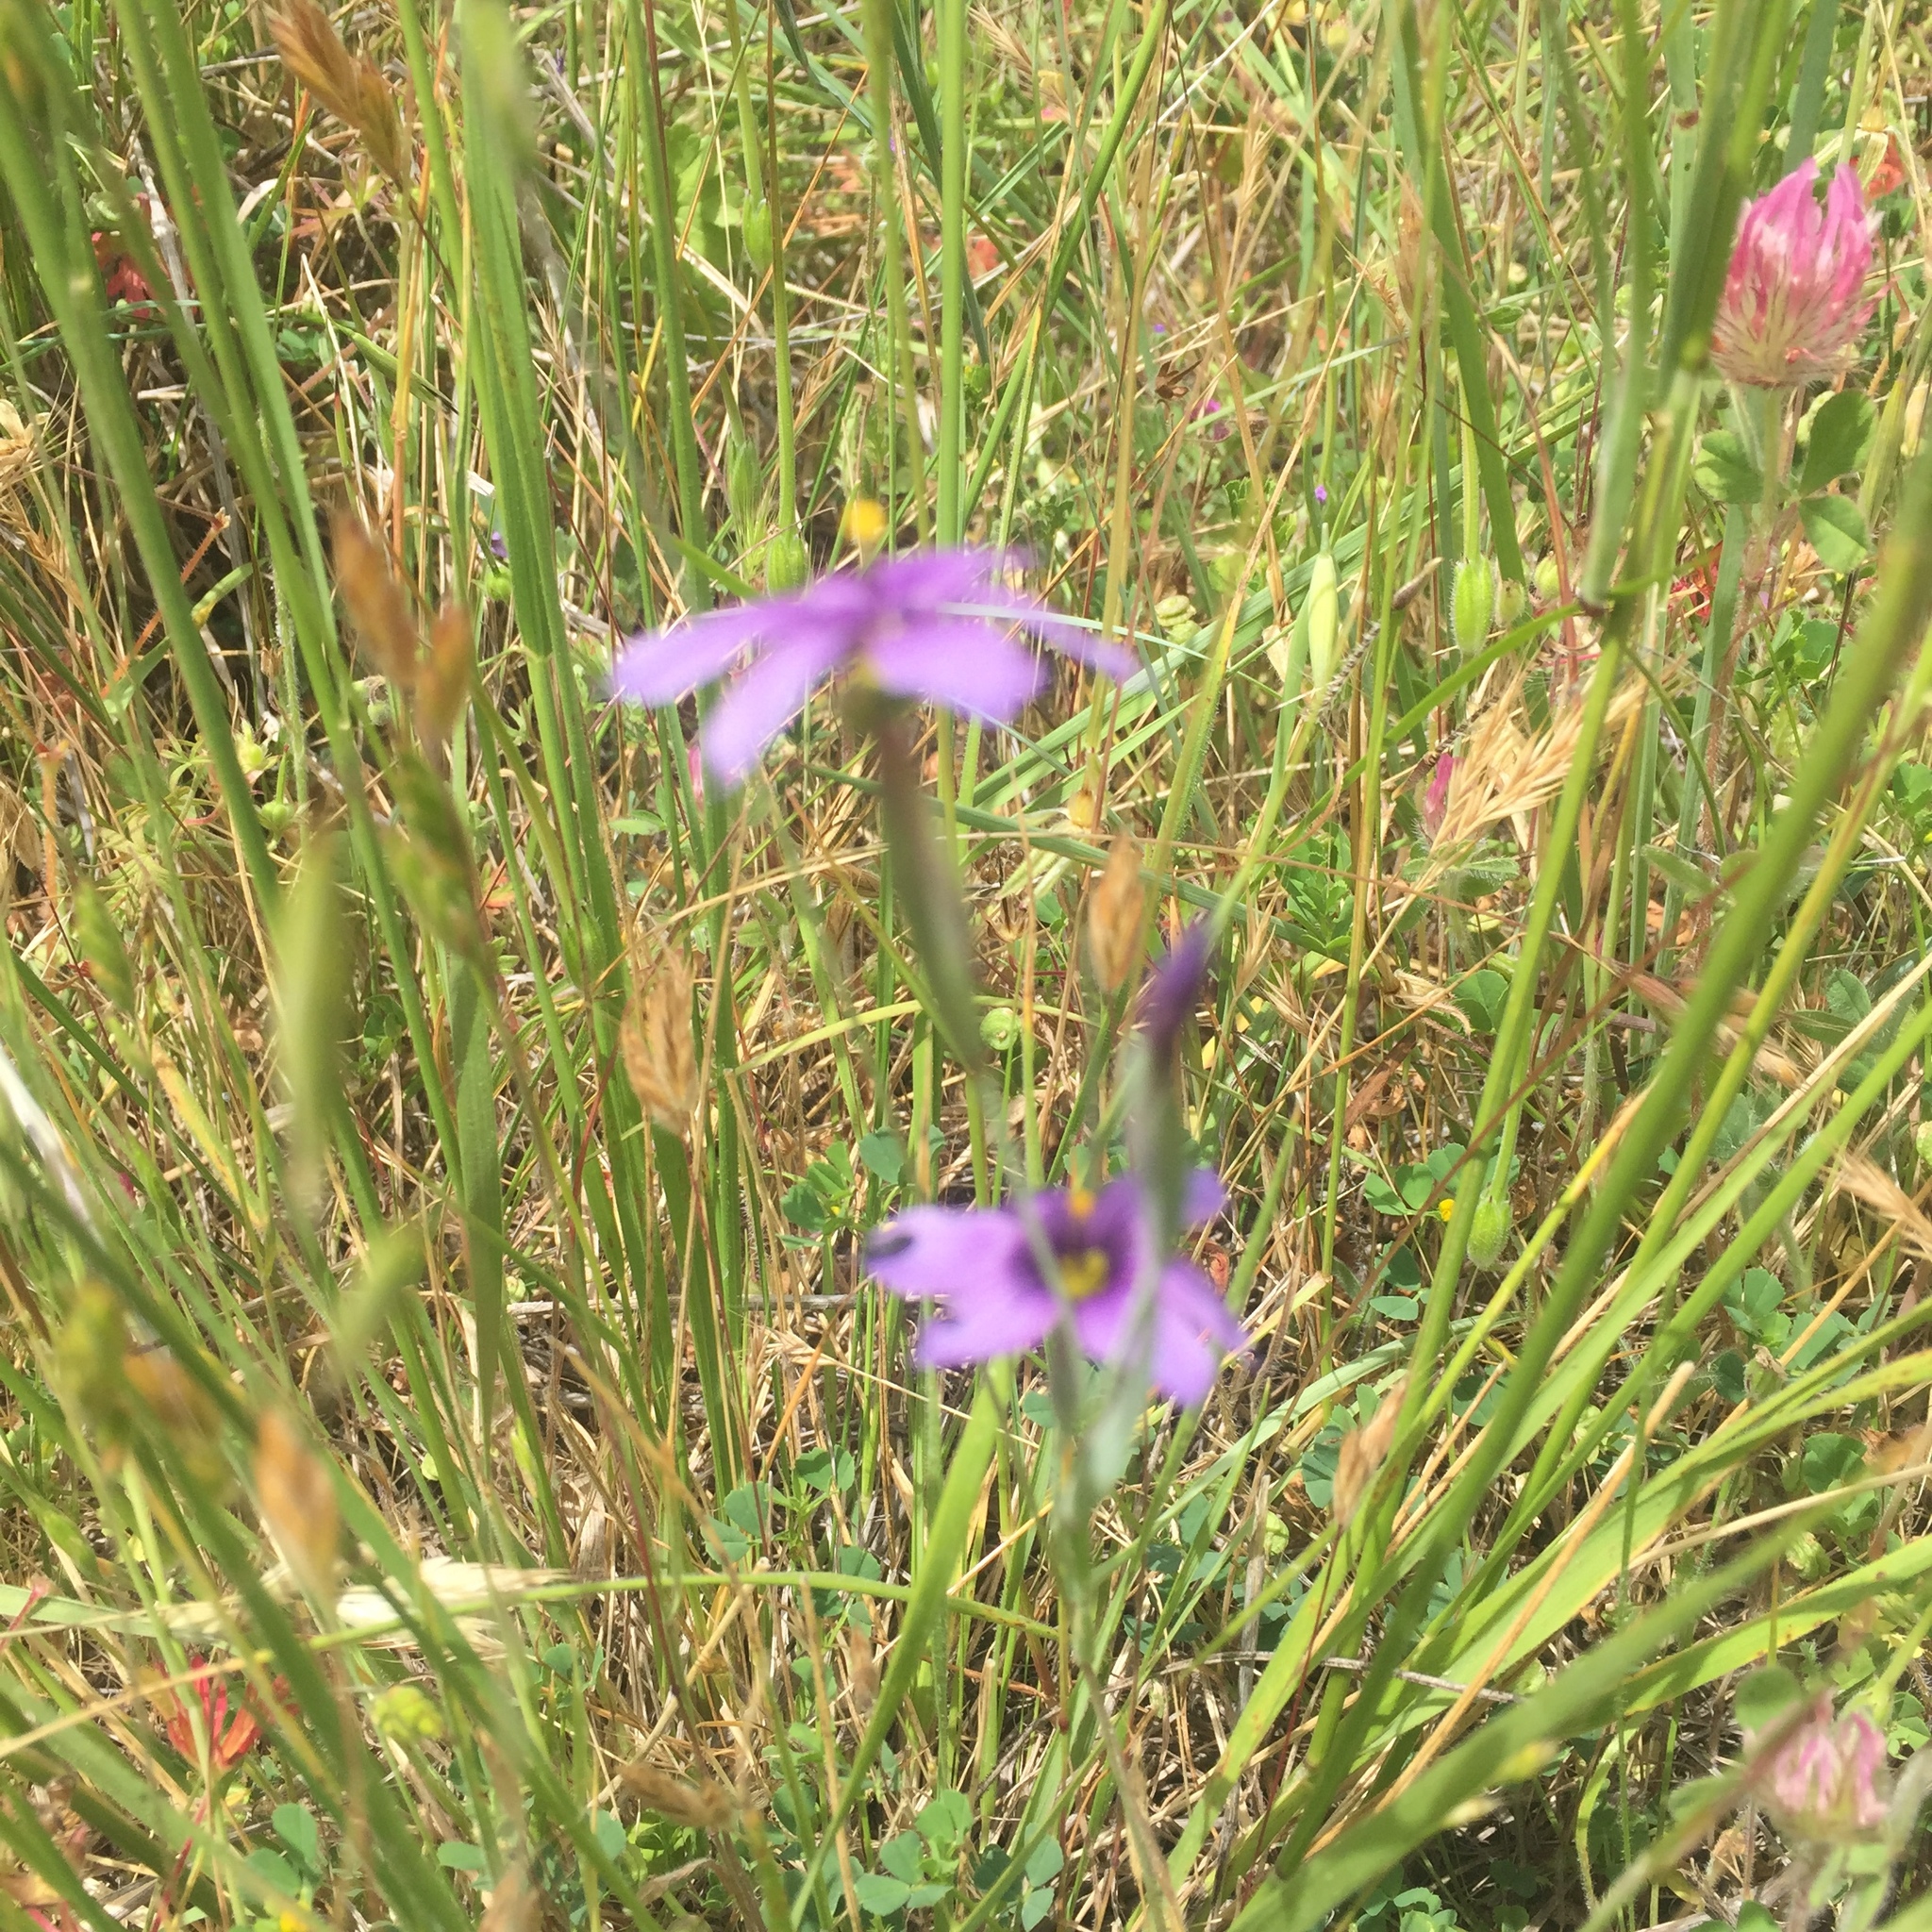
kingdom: Plantae
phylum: Tracheophyta
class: Liliopsida
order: Asparagales
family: Iridaceae
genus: Sisyrinchium
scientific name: Sisyrinchium bellum
